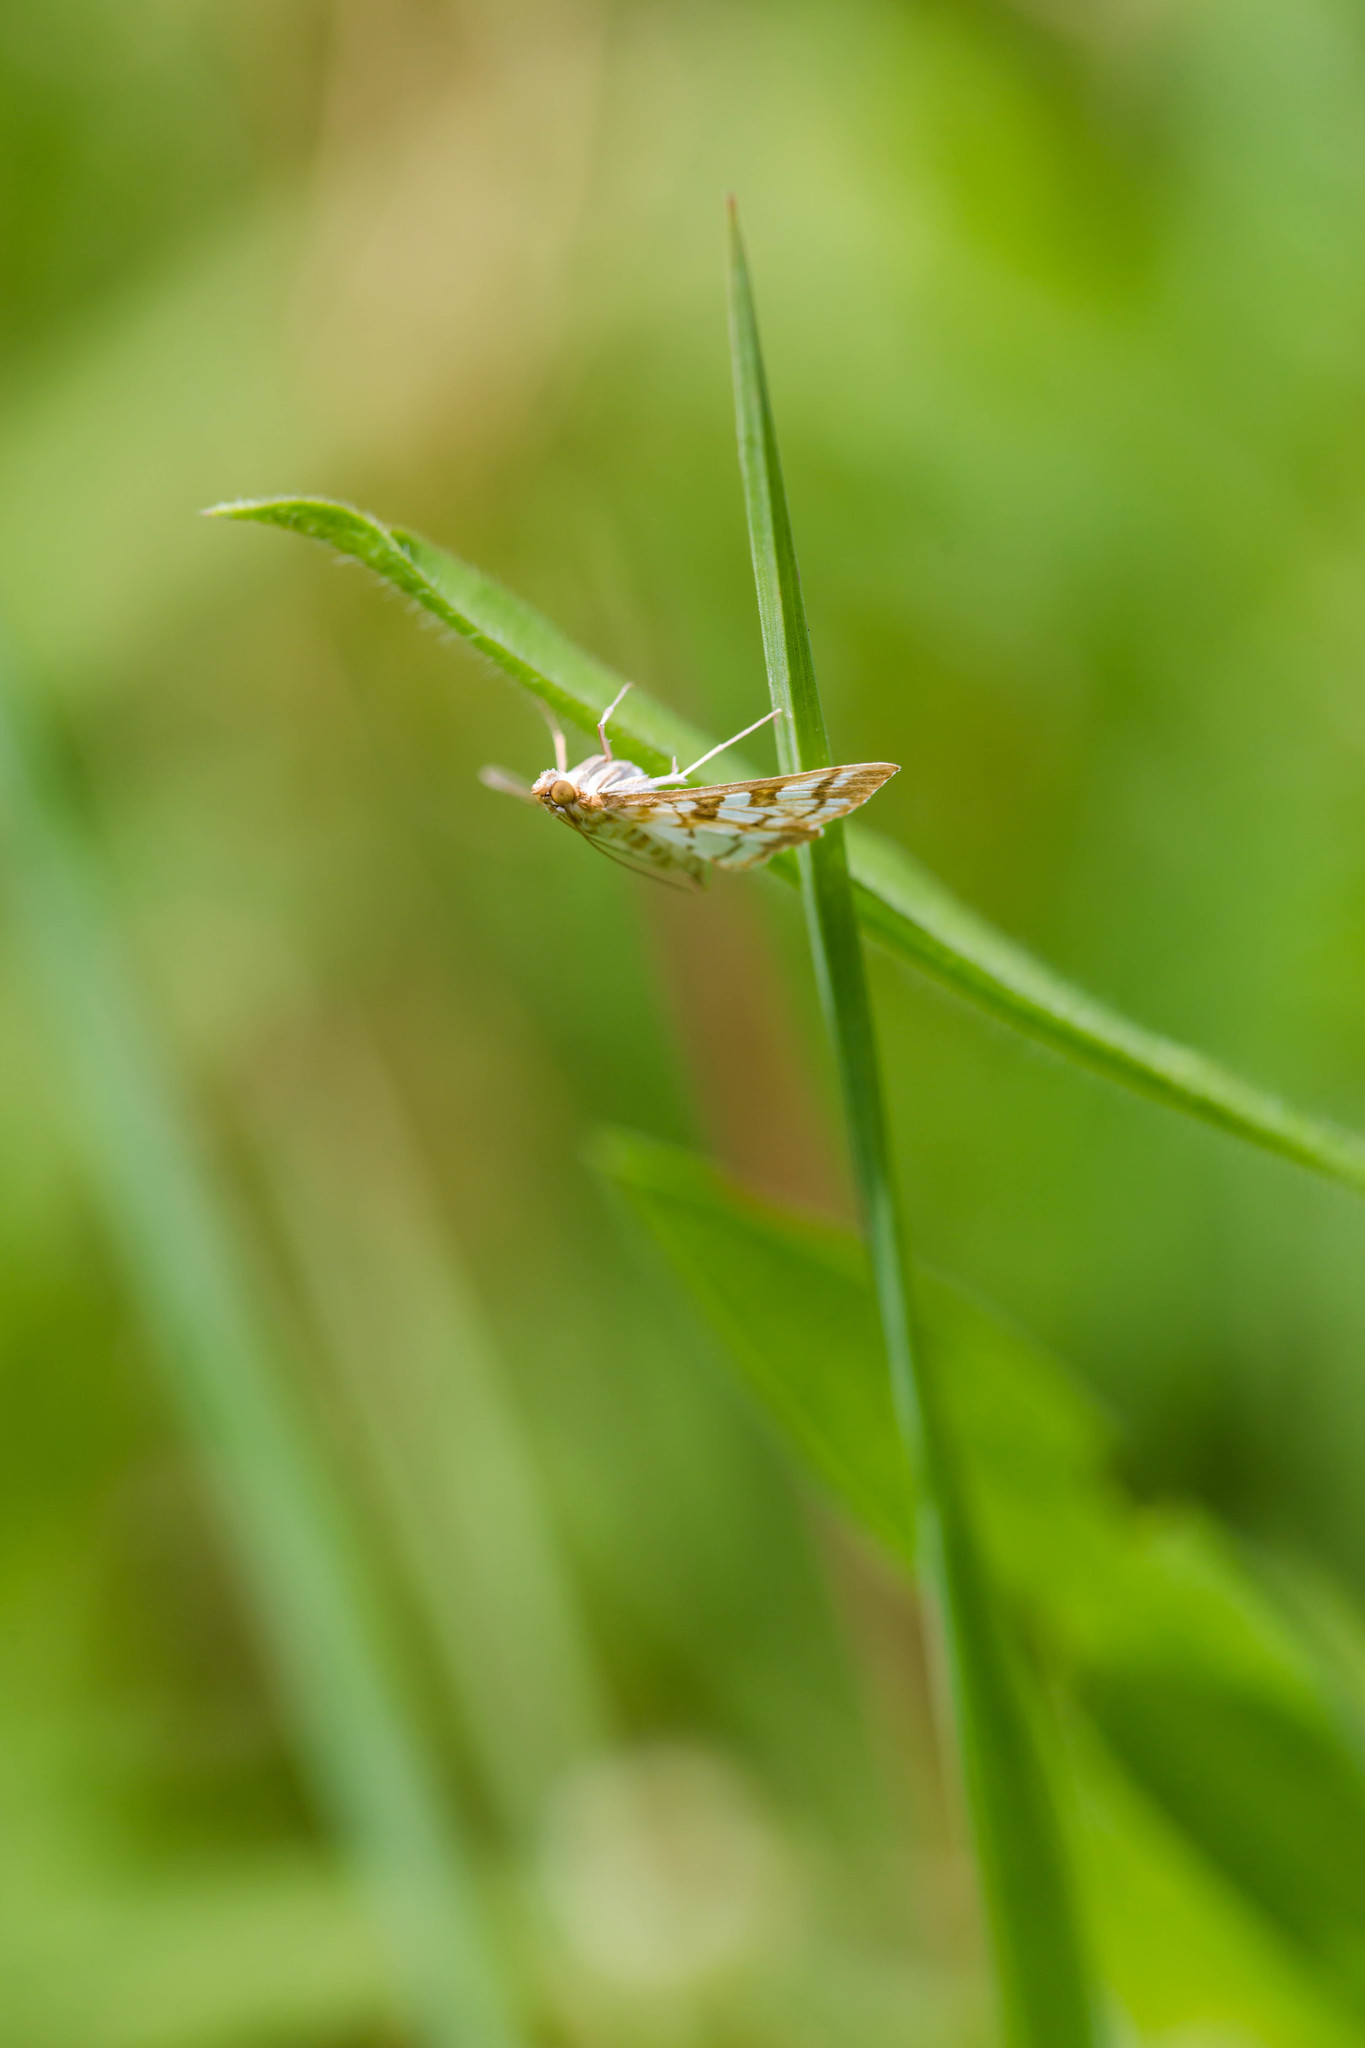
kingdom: Animalia
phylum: Arthropoda
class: Insecta
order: Lepidoptera
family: Crambidae
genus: Epipagis
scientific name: Epipagis fenestralis
